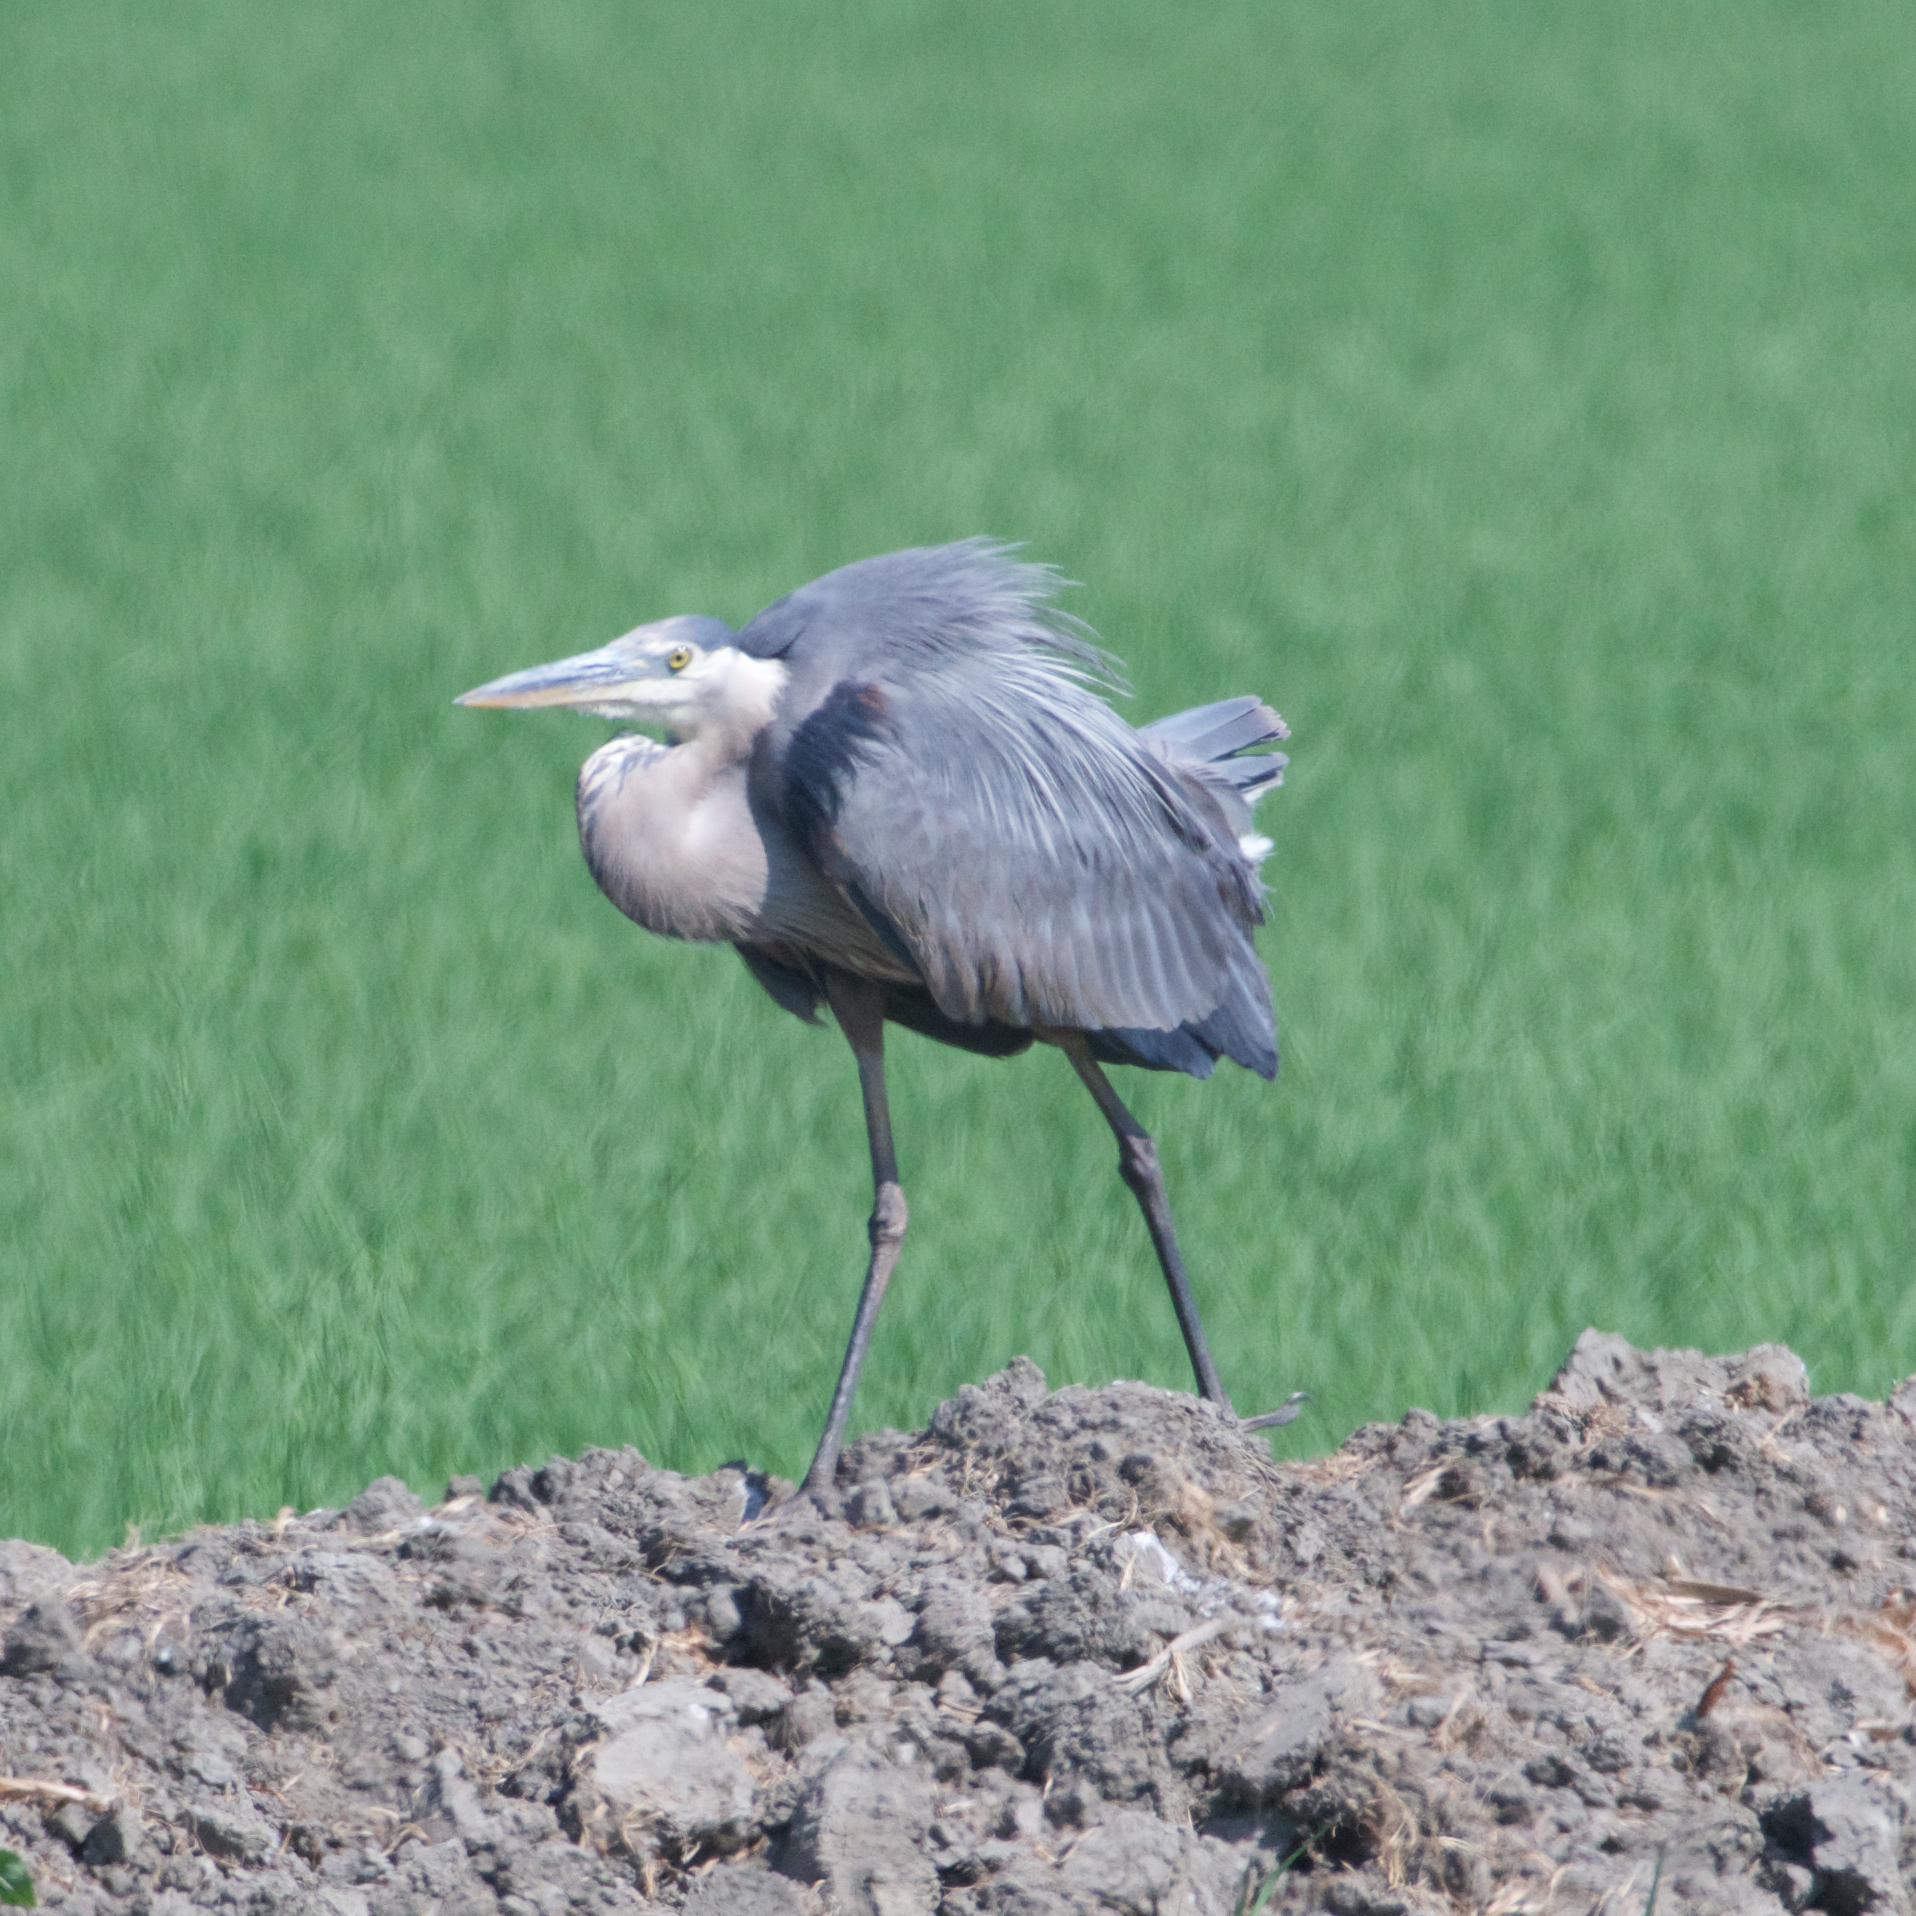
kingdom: Animalia
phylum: Chordata
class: Aves
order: Pelecaniformes
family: Ardeidae
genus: Ardea
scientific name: Ardea herodias
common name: Great blue heron
